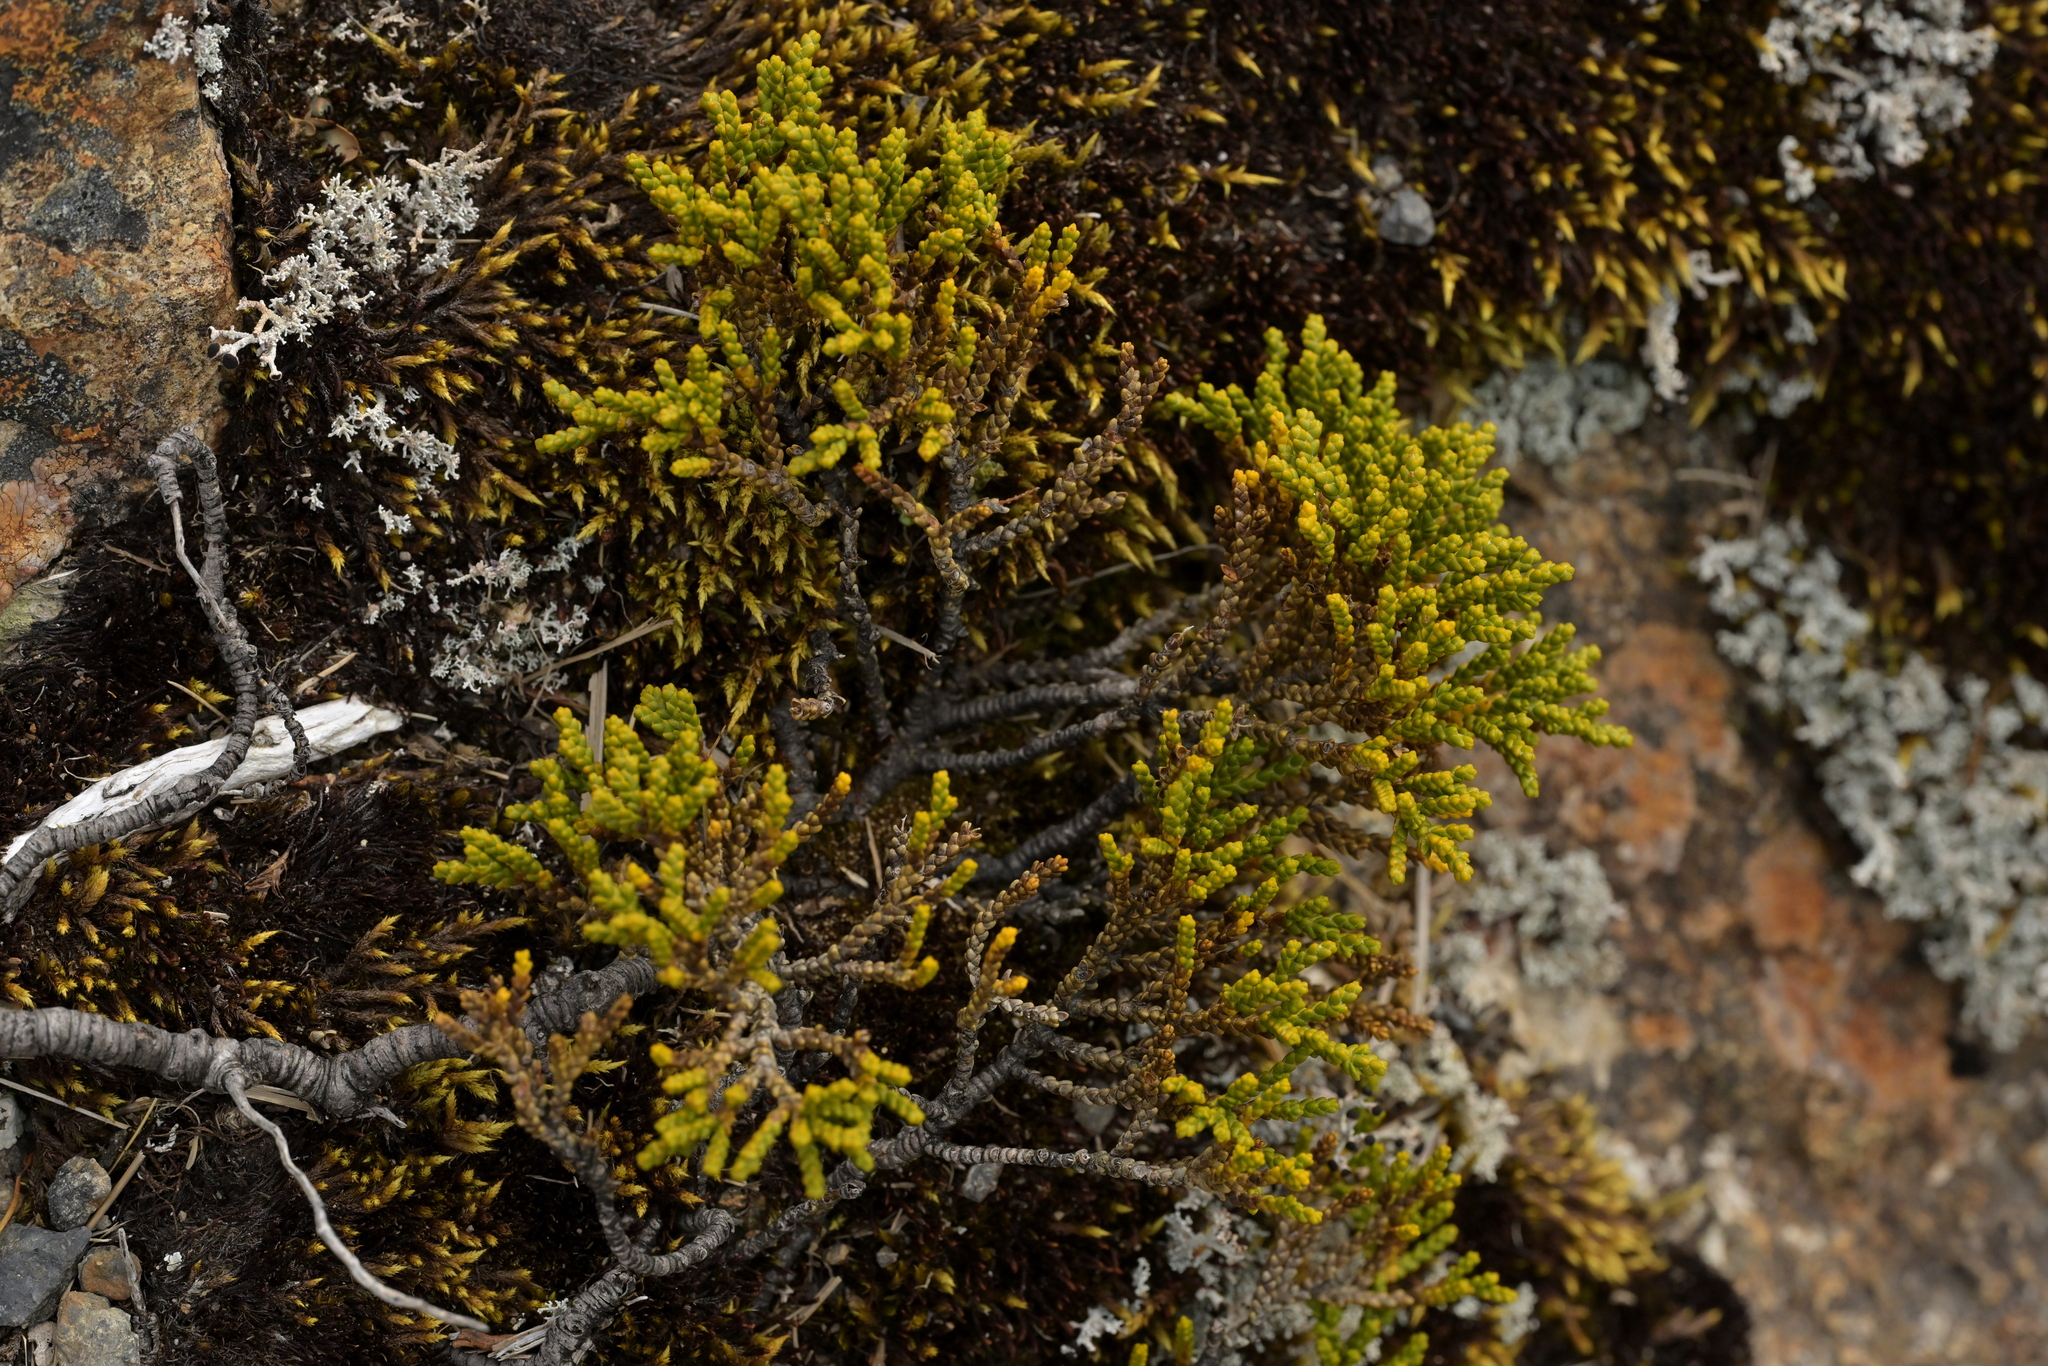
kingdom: Plantae
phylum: Tracheophyta
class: Magnoliopsida
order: Lamiales
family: Plantaginaceae
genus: Veronica
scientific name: Veronica tetragona
